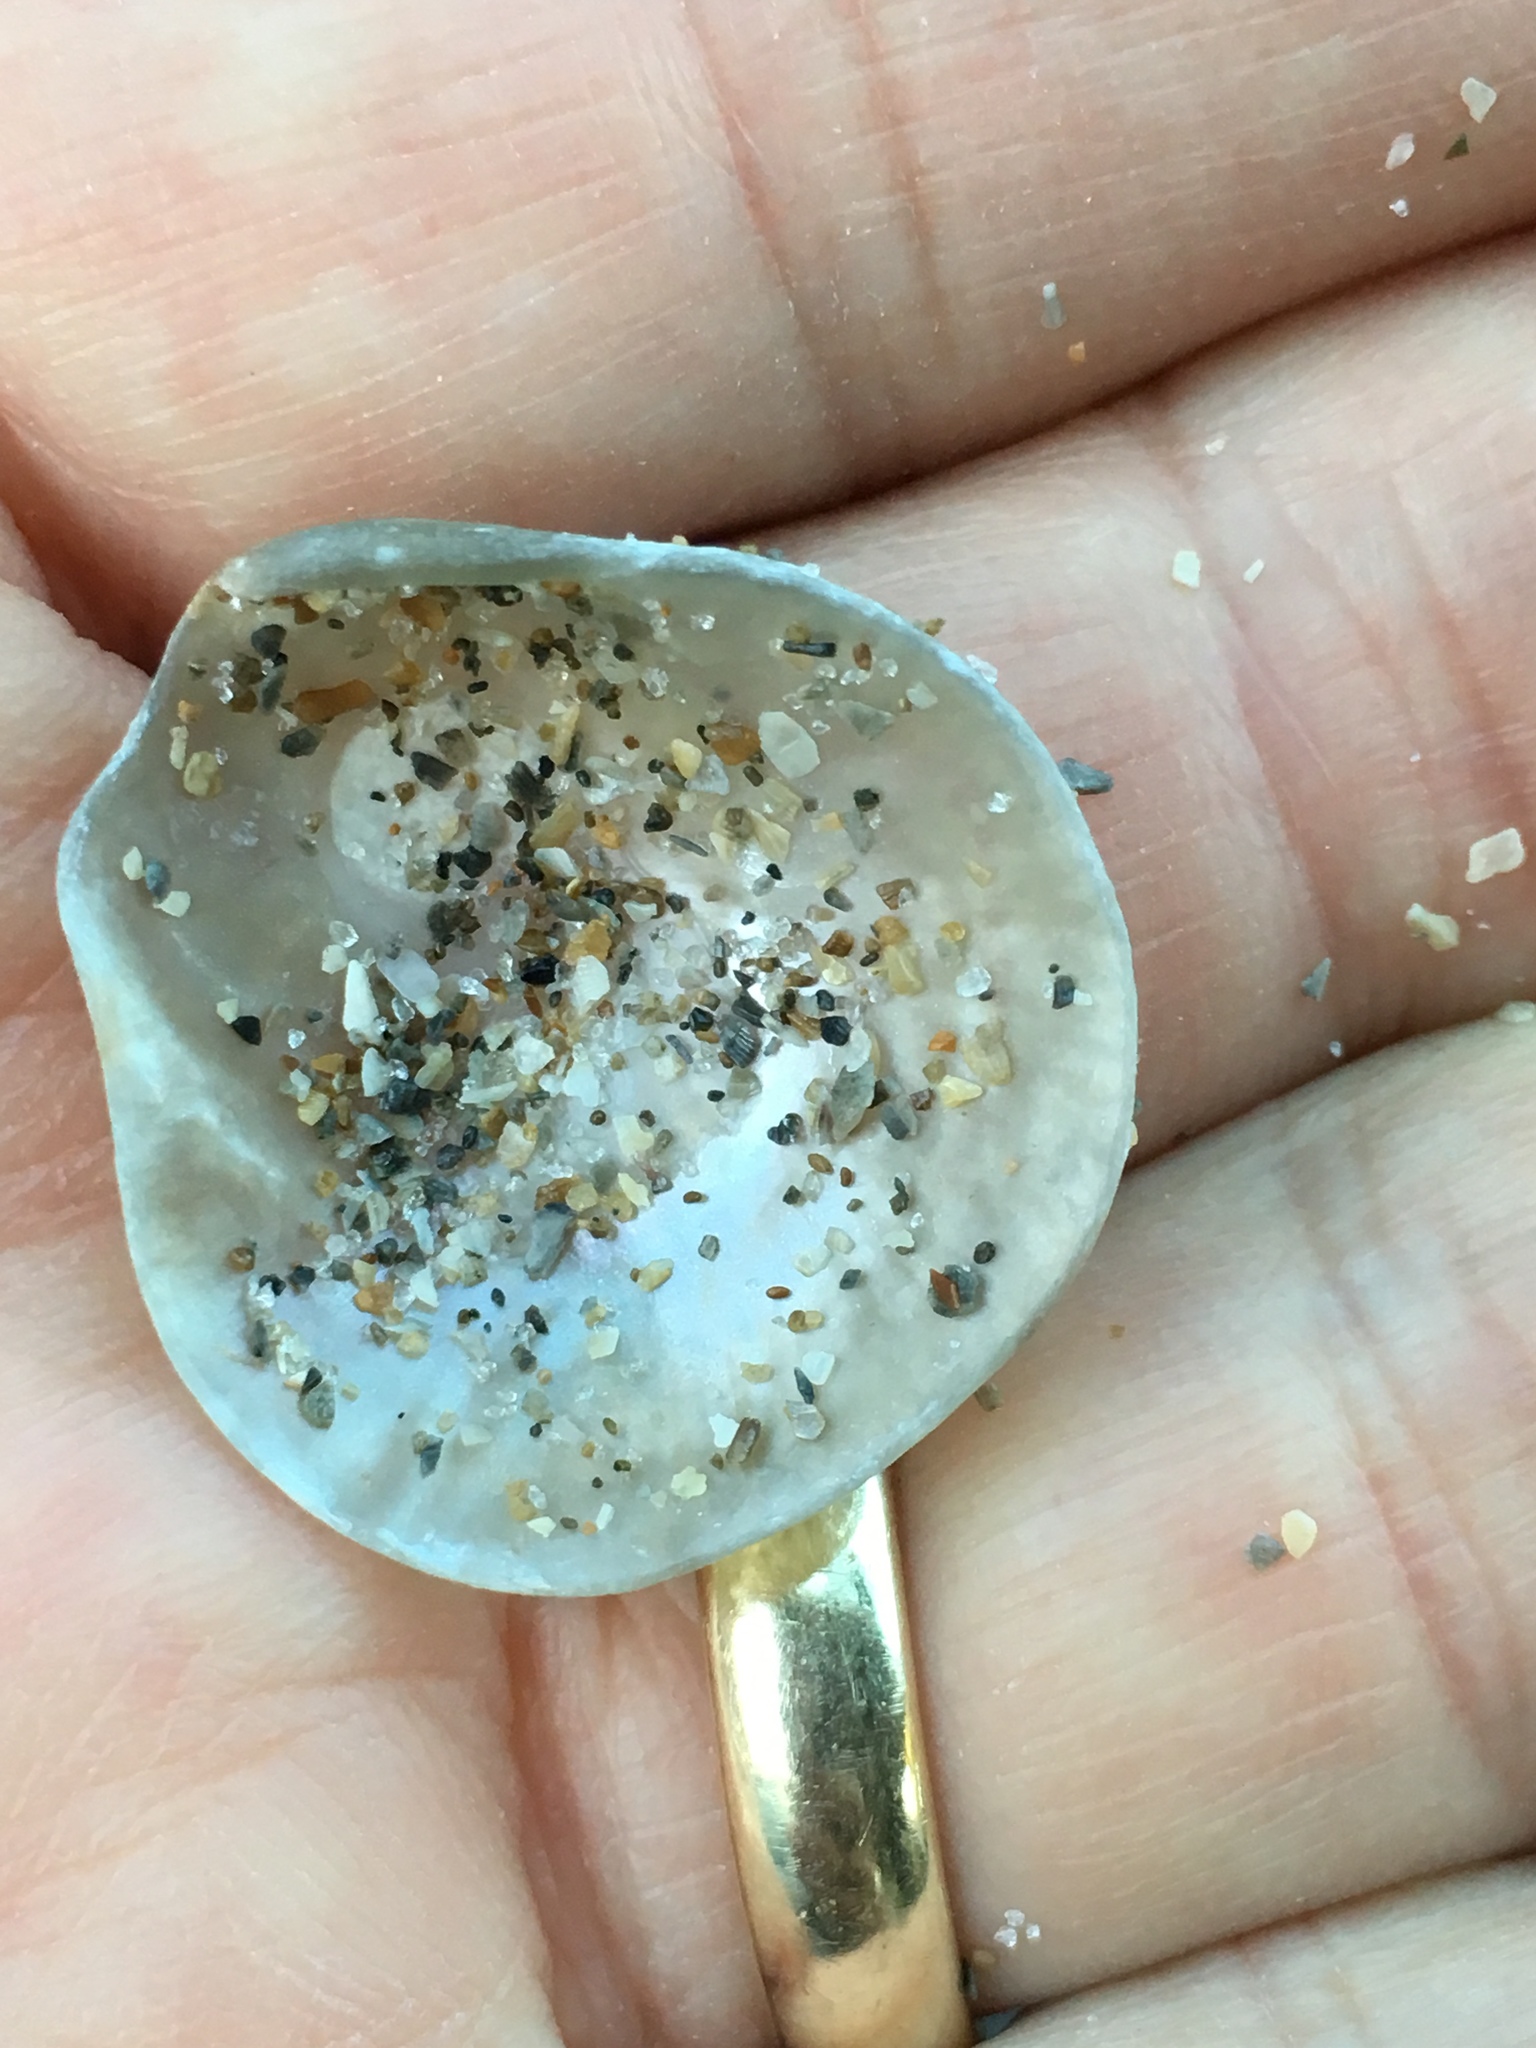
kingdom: Animalia
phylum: Mollusca
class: Bivalvia
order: Pectinida
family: Anomiidae
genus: Anomia
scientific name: Anomia simplex
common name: Common jingle shell
